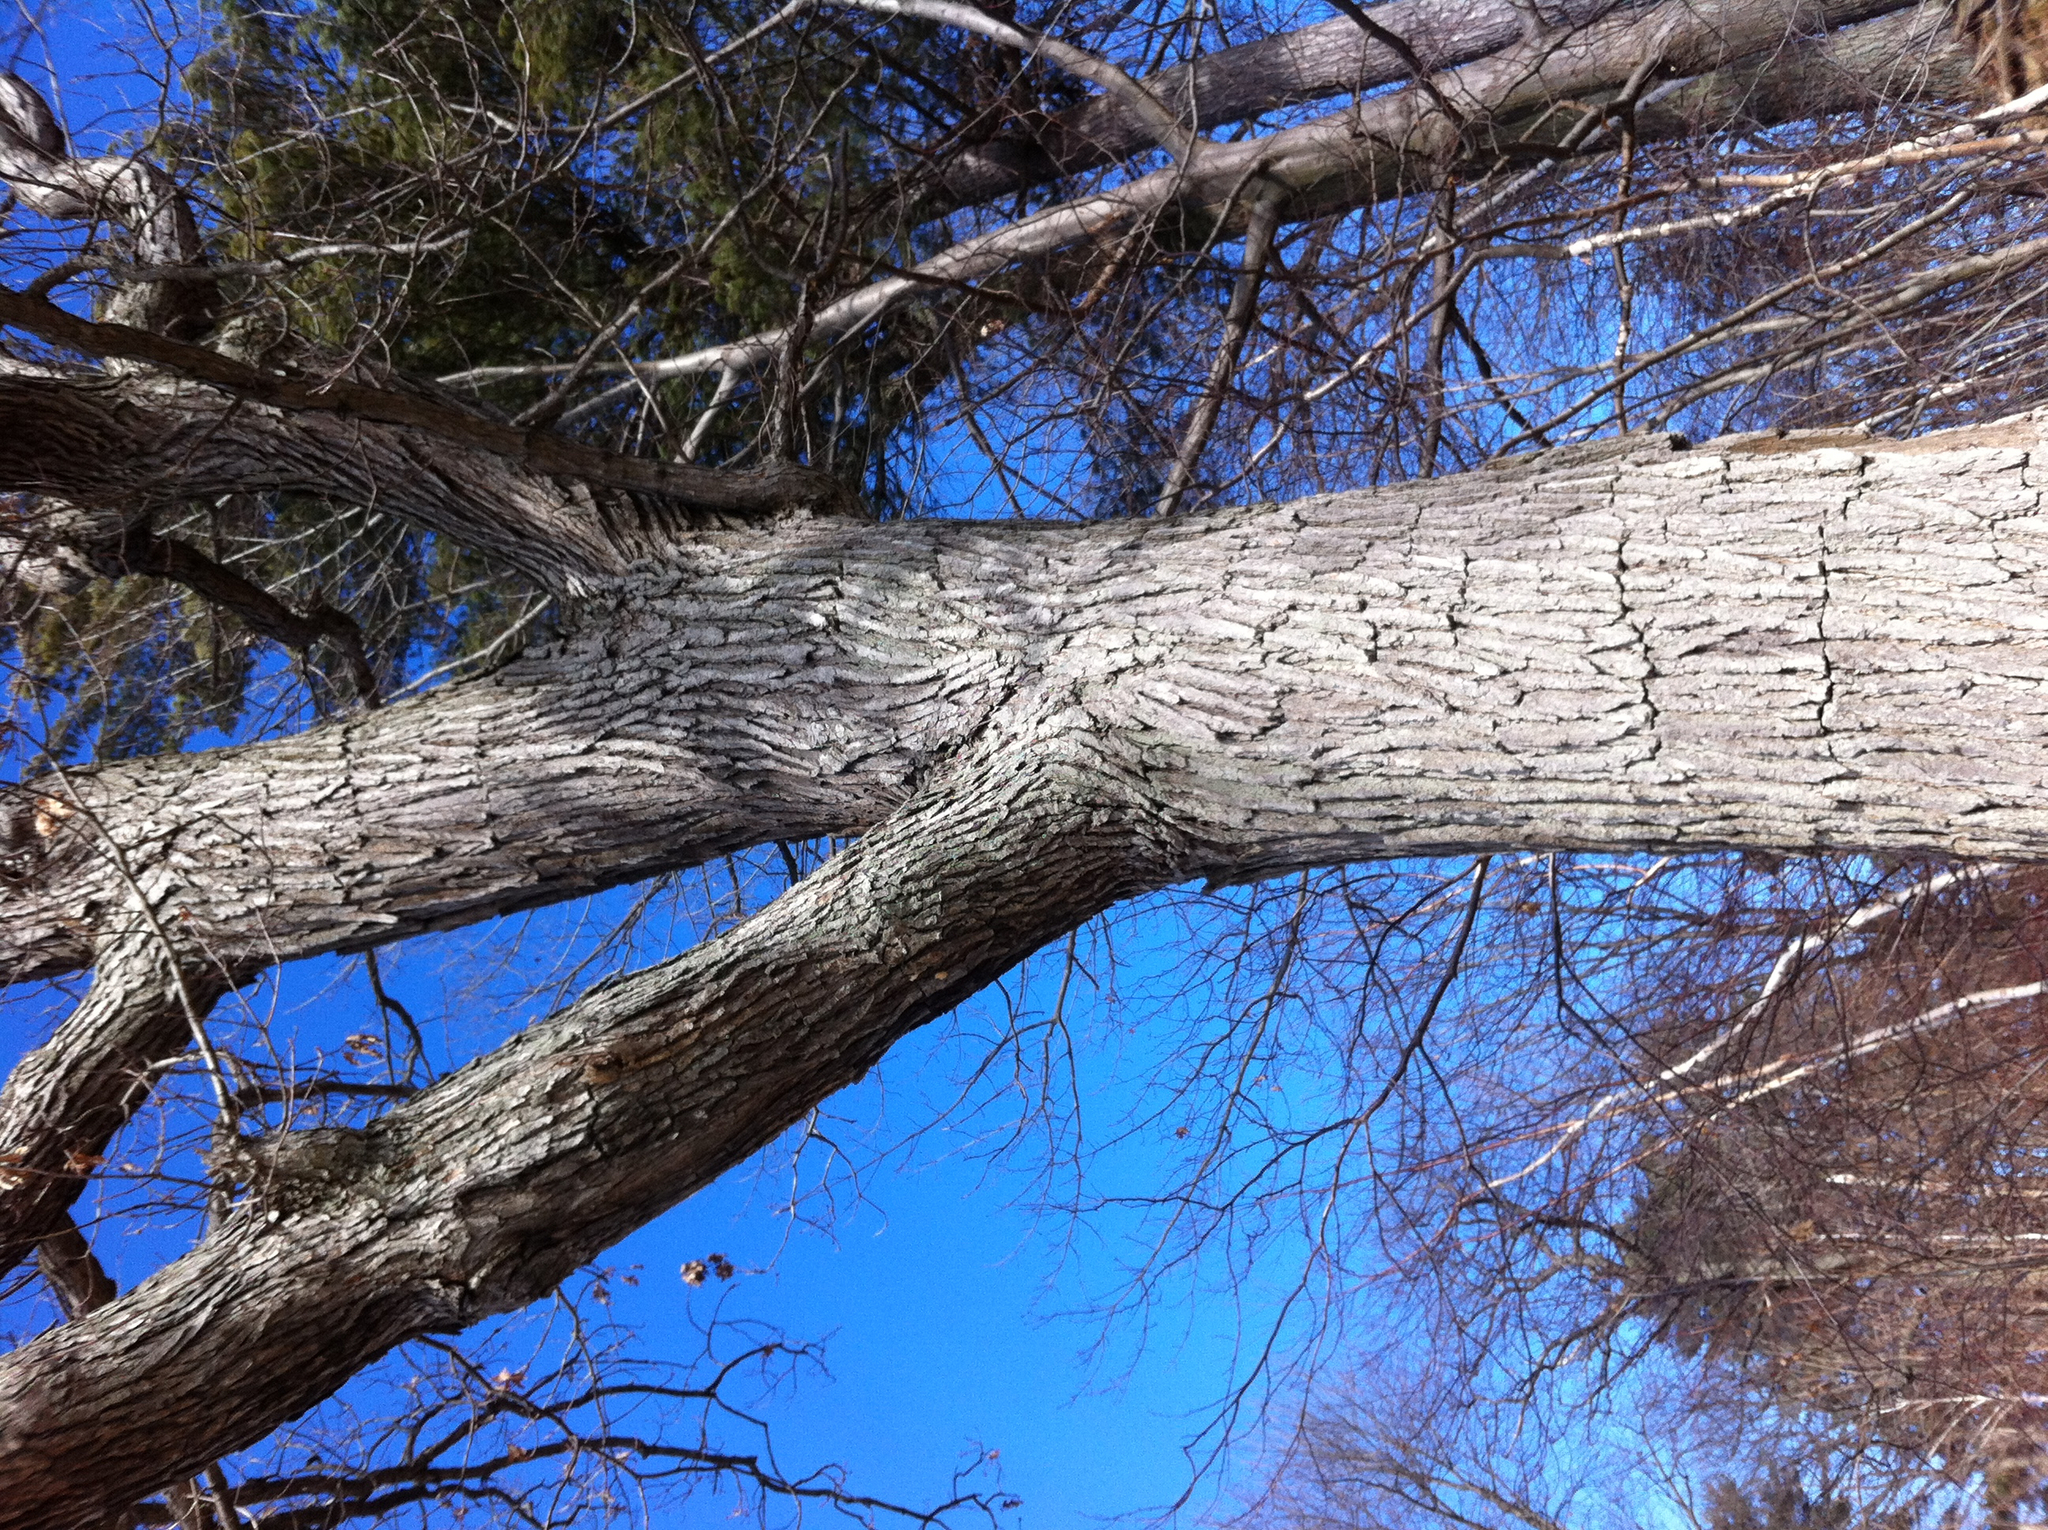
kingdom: Plantae
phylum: Tracheophyta
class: Magnoliopsida
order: Fagales
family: Fagaceae
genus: Quercus
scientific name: Quercus alba
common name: White oak
